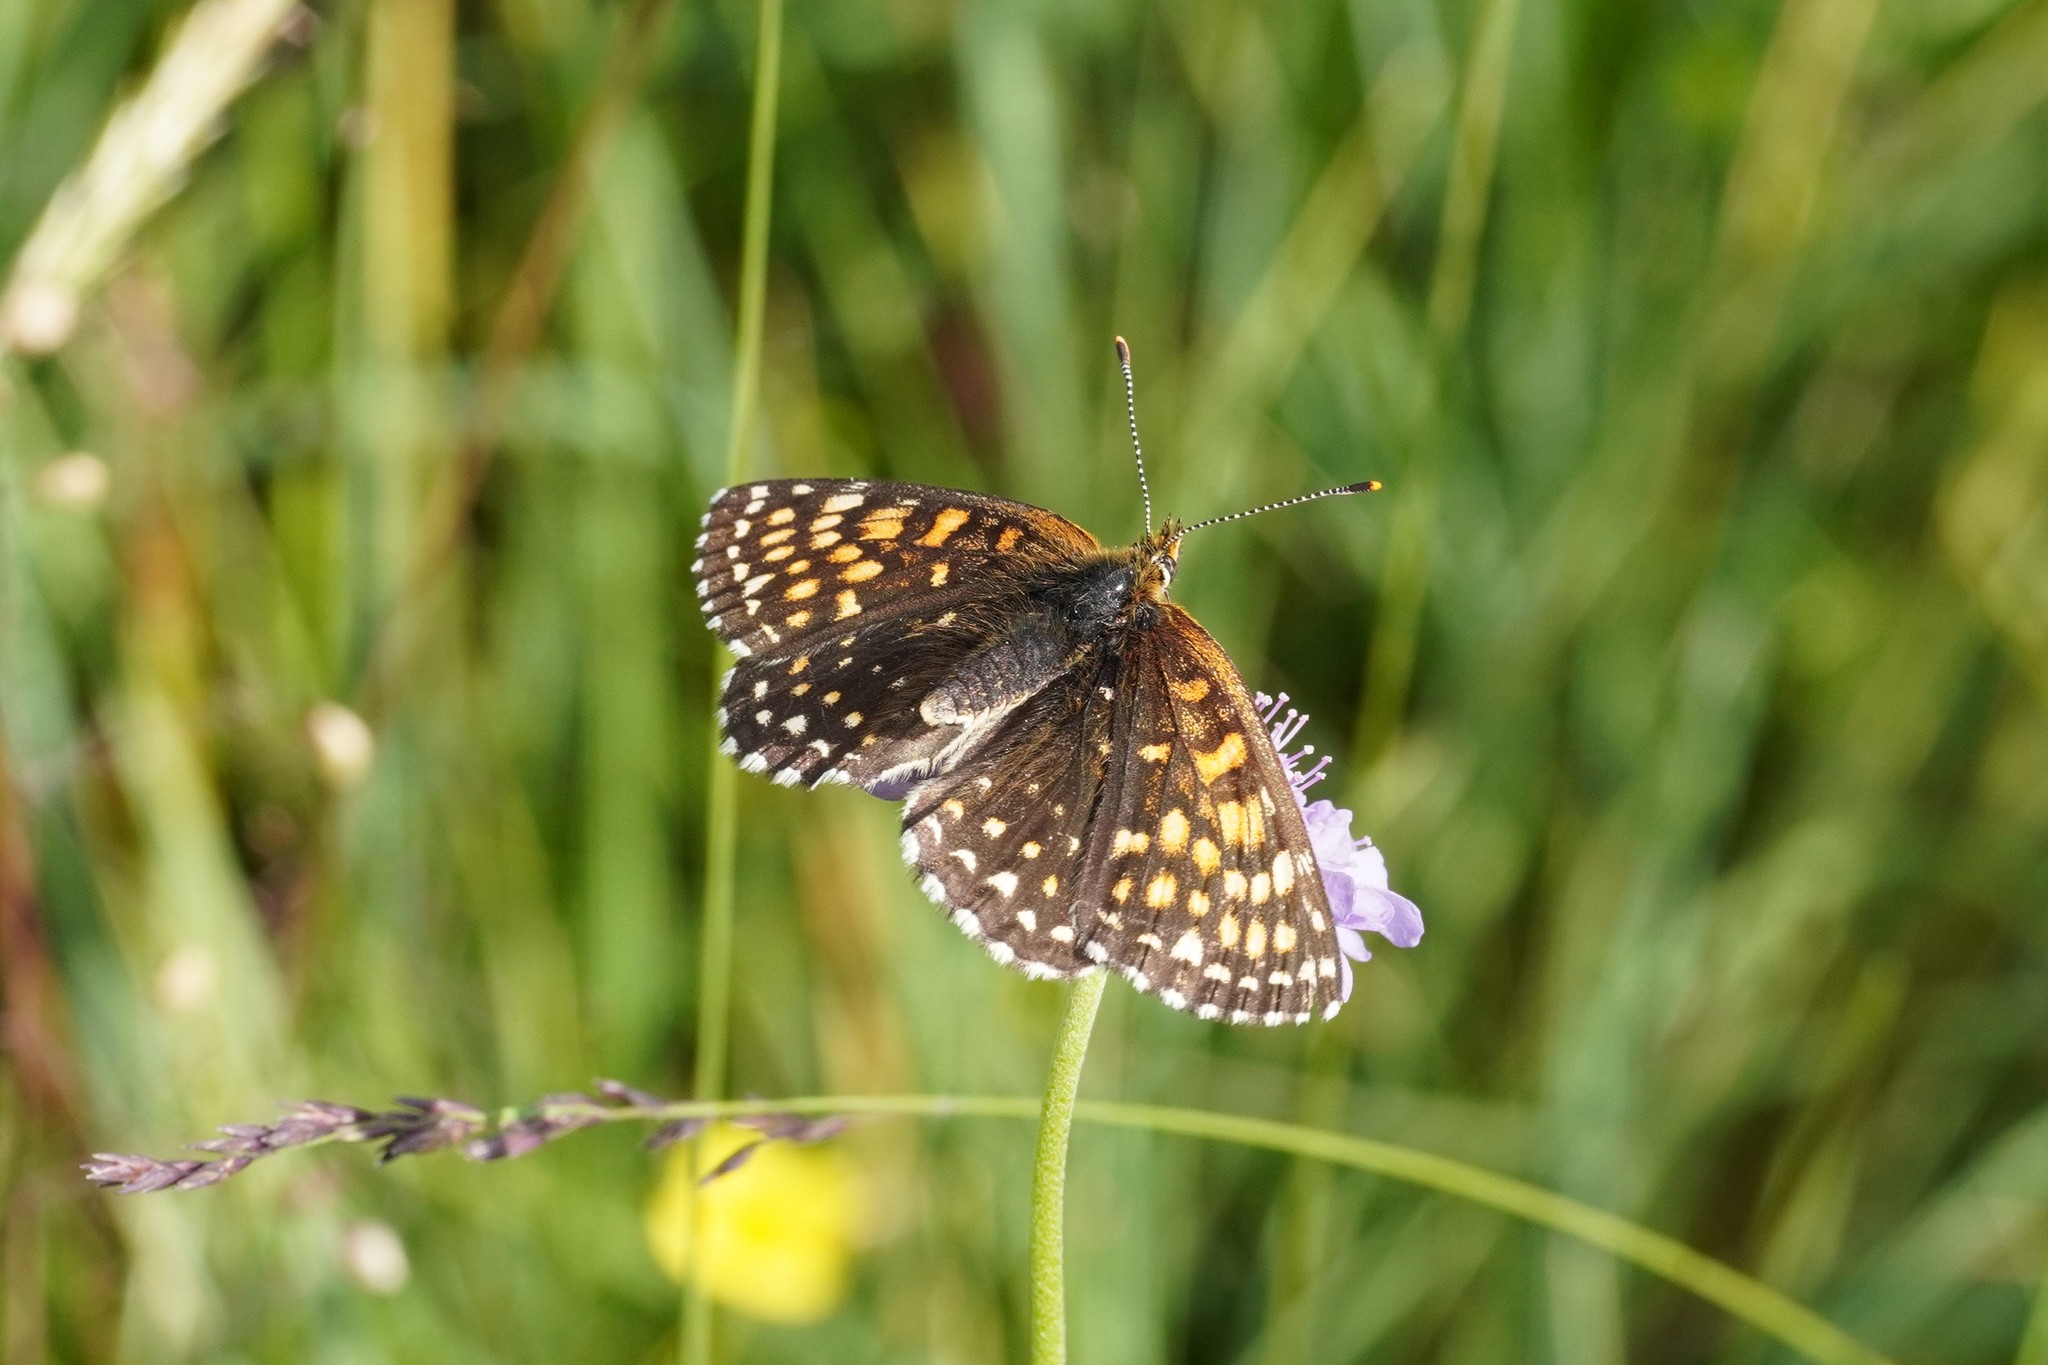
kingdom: Animalia
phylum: Arthropoda
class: Insecta
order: Lepidoptera
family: Nymphalidae
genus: Melitaea
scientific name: Melitaea diamina
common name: False heath fritillary
